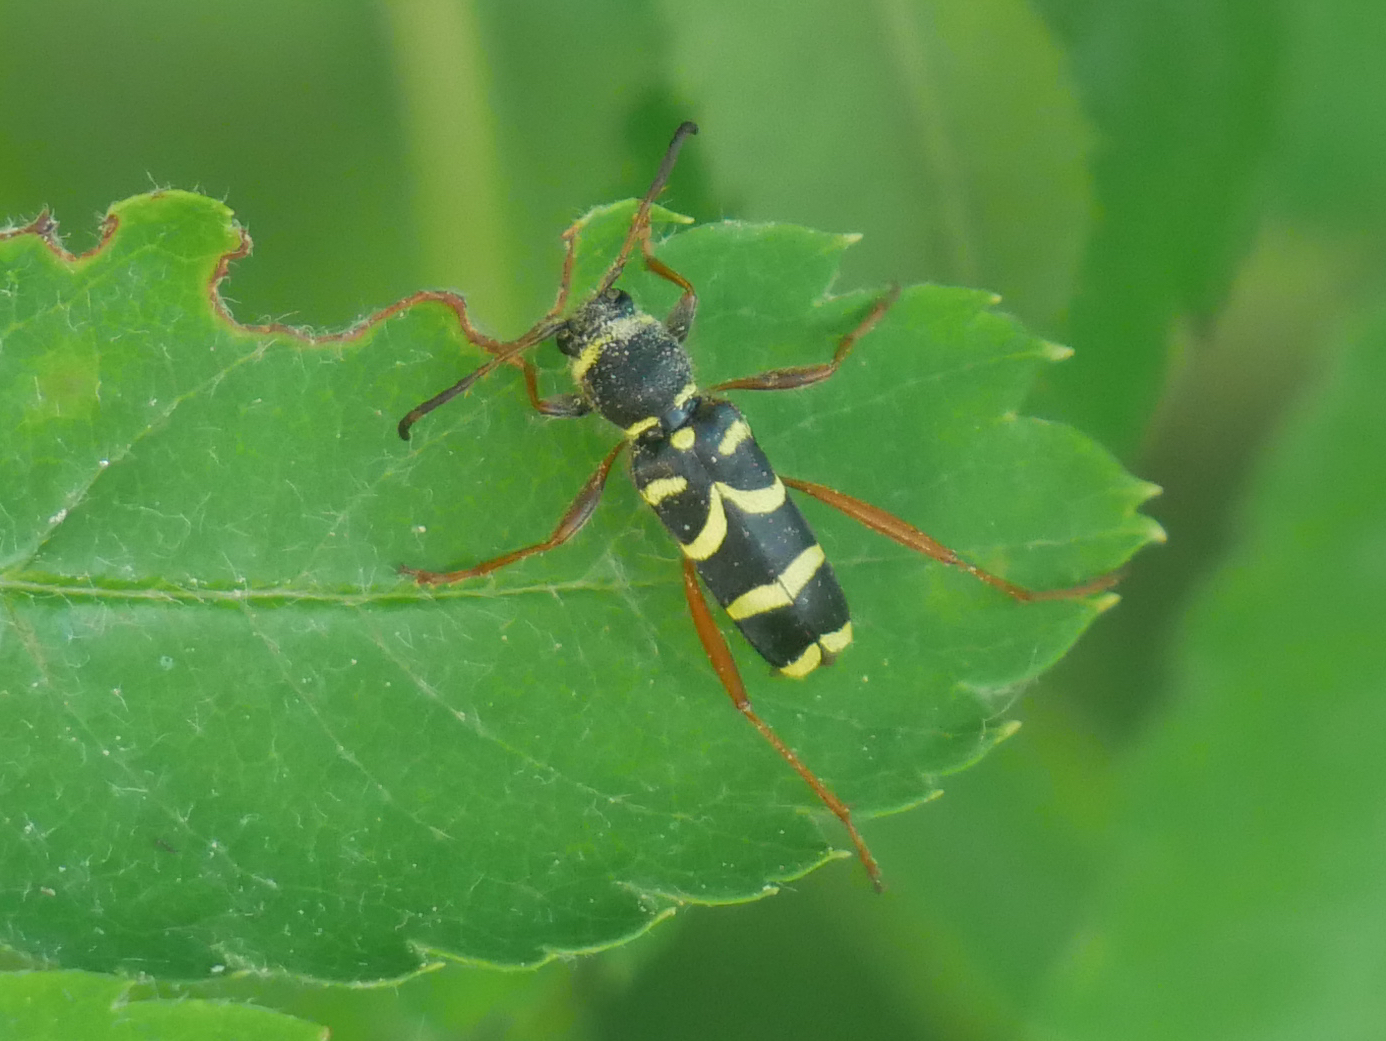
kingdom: Animalia
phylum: Arthropoda
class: Insecta
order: Coleoptera
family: Cerambycidae
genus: Clytus
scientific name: Clytus arietis
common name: Wasp beetle
